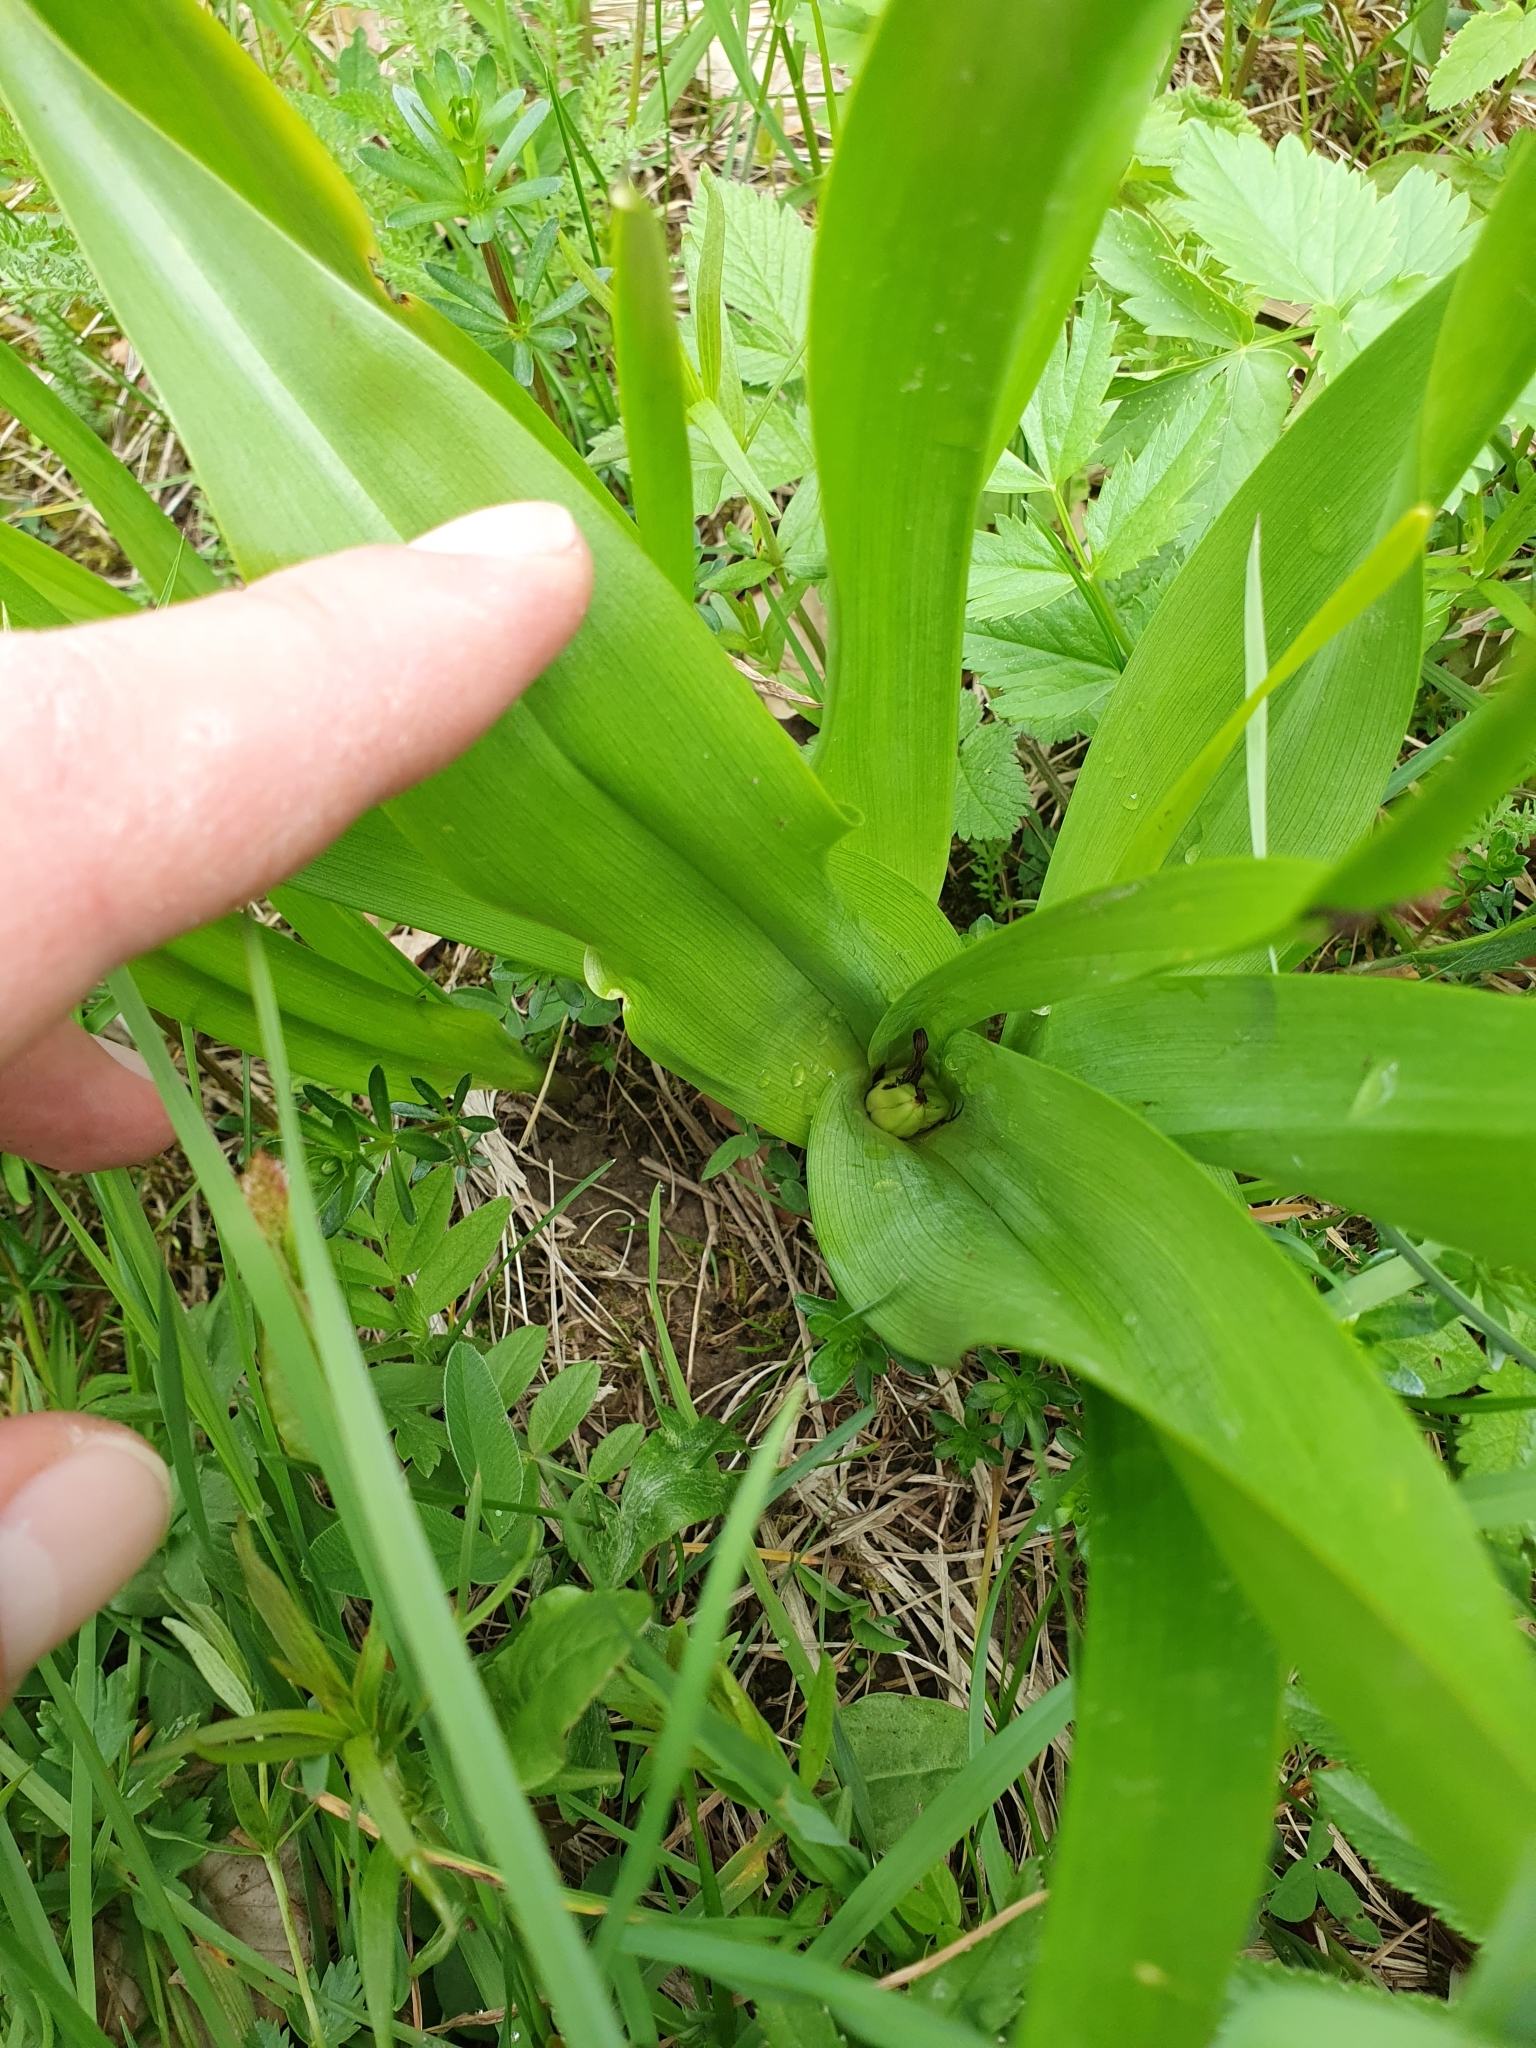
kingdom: Plantae
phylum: Tracheophyta
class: Liliopsida
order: Liliales
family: Colchicaceae
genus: Colchicum
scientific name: Colchicum autumnale
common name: Autumn crocus
